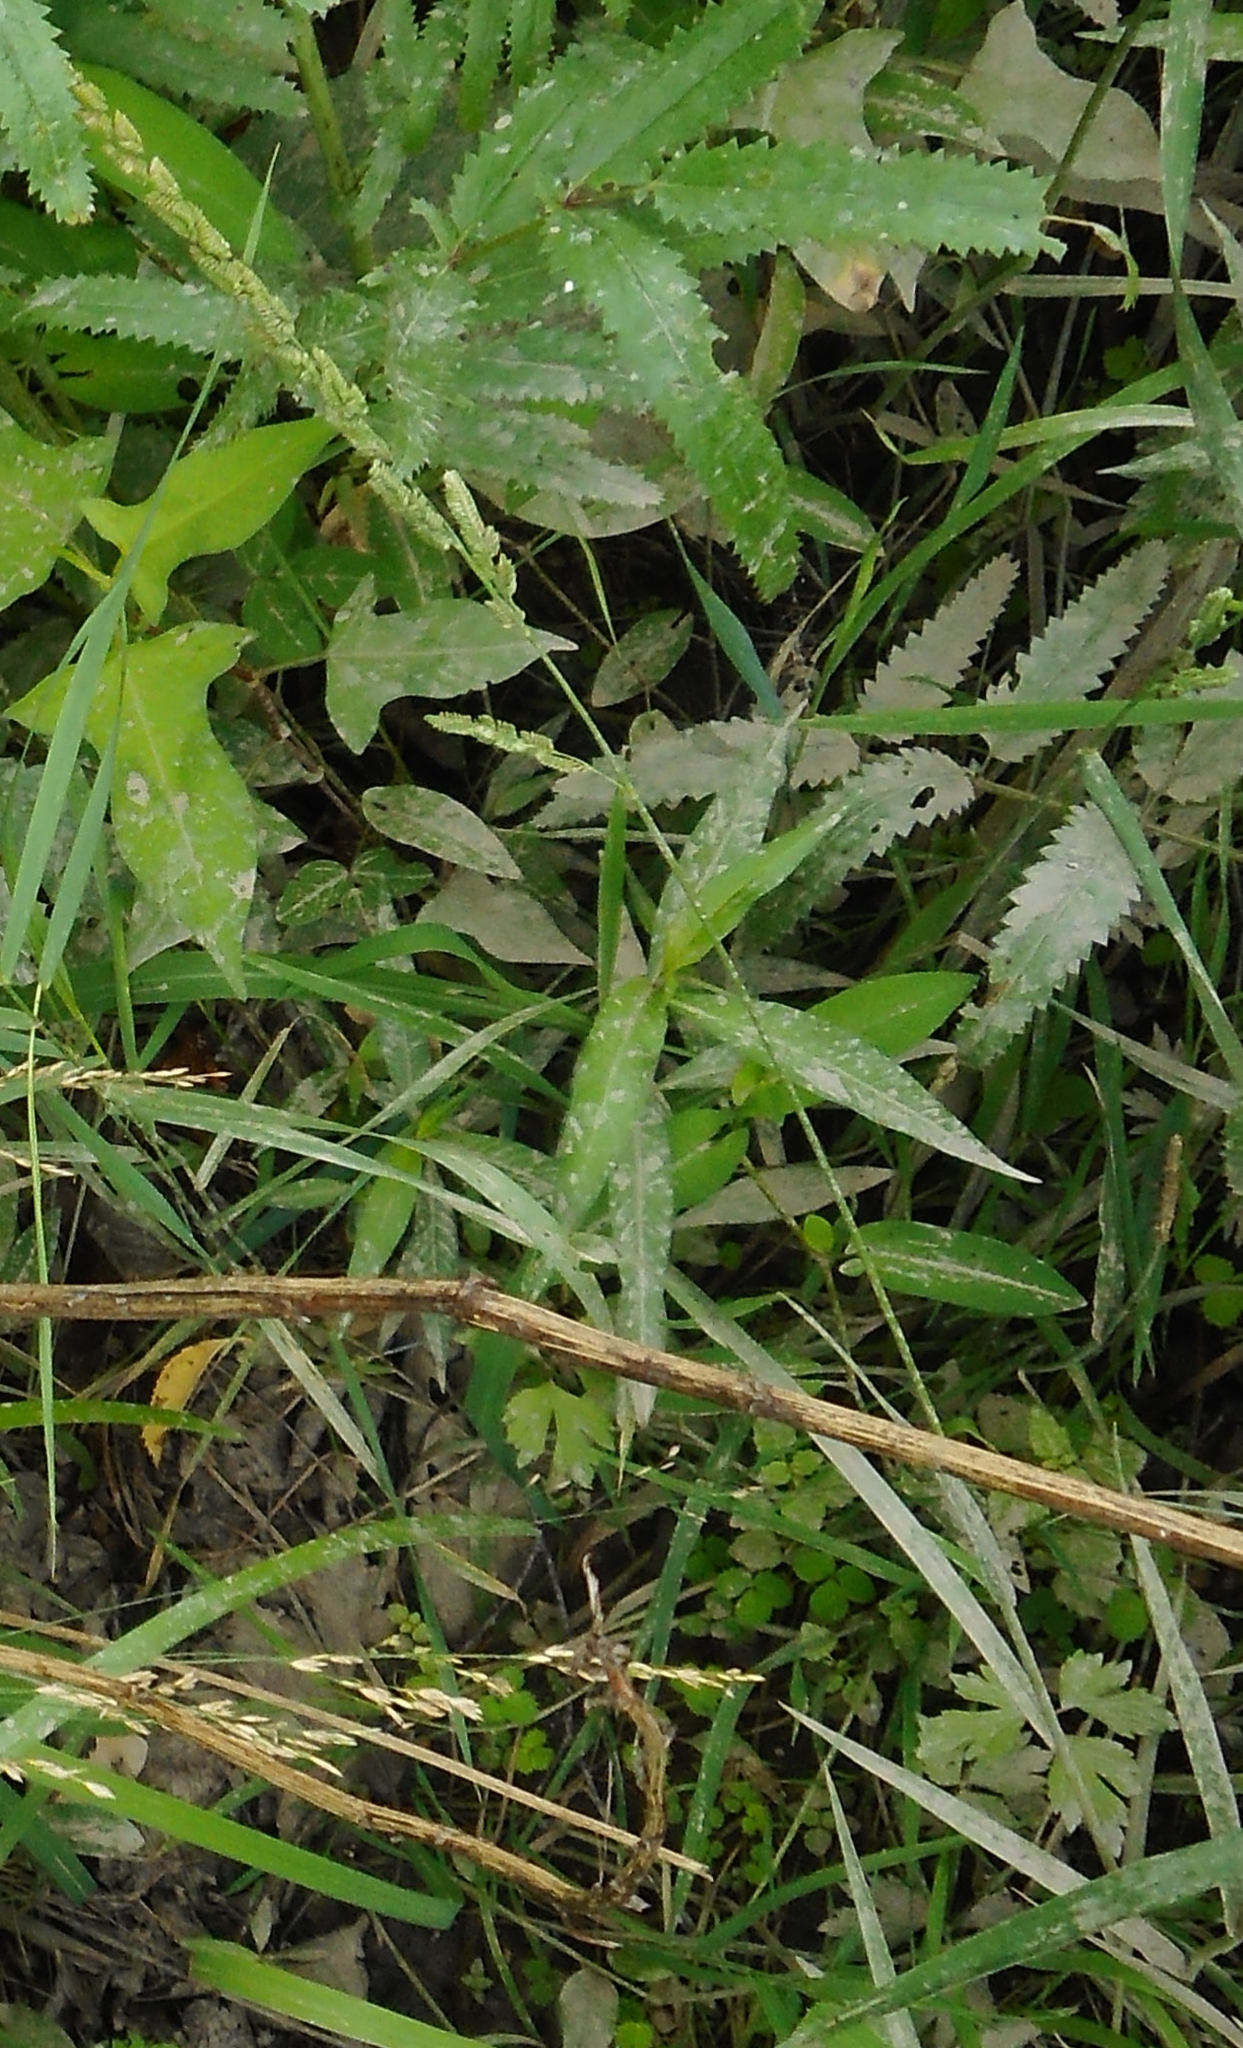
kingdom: Plantae
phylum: Tracheophyta
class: Liliopsida
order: Poales
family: Poaceae
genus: Beckmannia
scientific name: Beckmannia syzigachne
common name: American slough-grass
